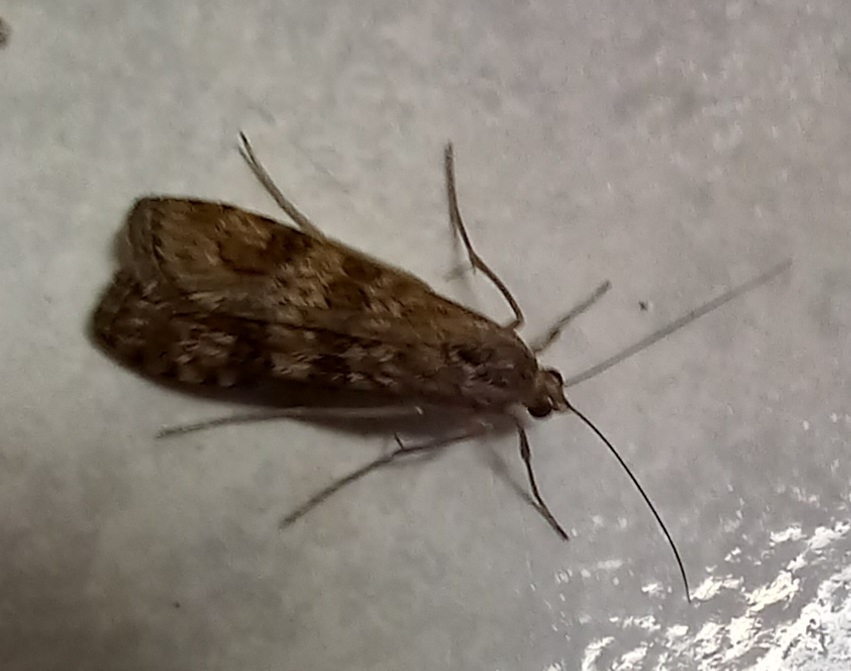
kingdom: Animalia
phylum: Arthropoda
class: Insecta
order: Lepidoptera
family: Crambidae
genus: Nomophila
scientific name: Nomophila noctuella
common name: Rush veneer
